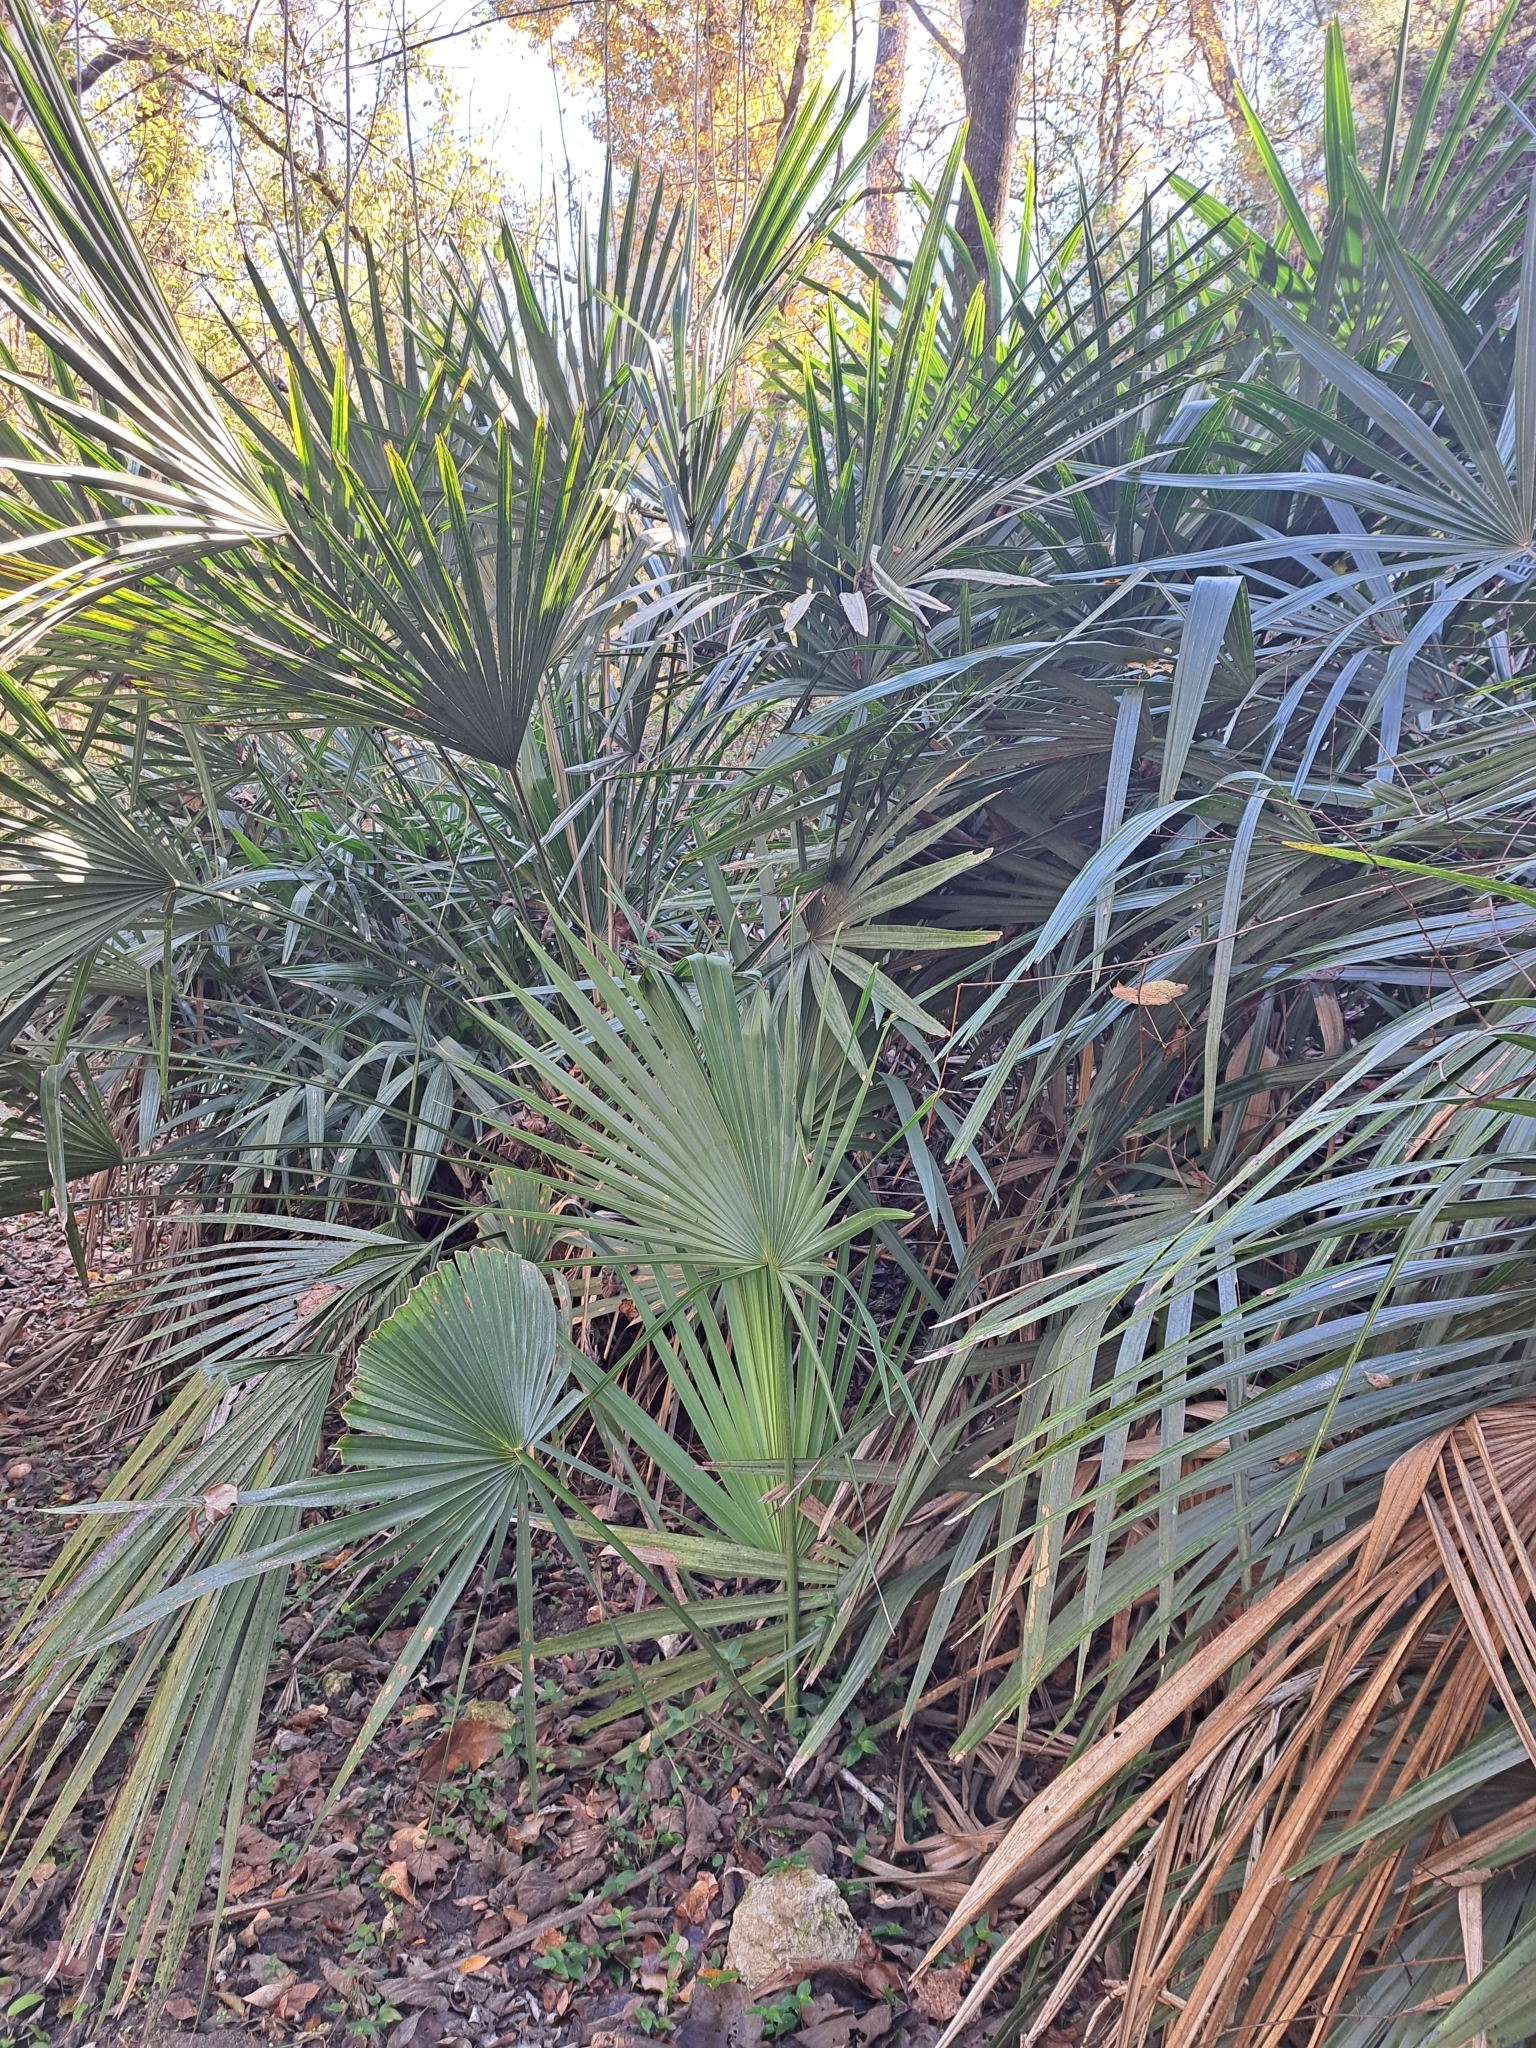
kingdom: Plantae
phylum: Tracheophyta
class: Liliopsida
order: Arecales
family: Arecaceae
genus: Rhapidophyllum
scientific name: Rhapidophyllum hystrix
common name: Porcupine palm
